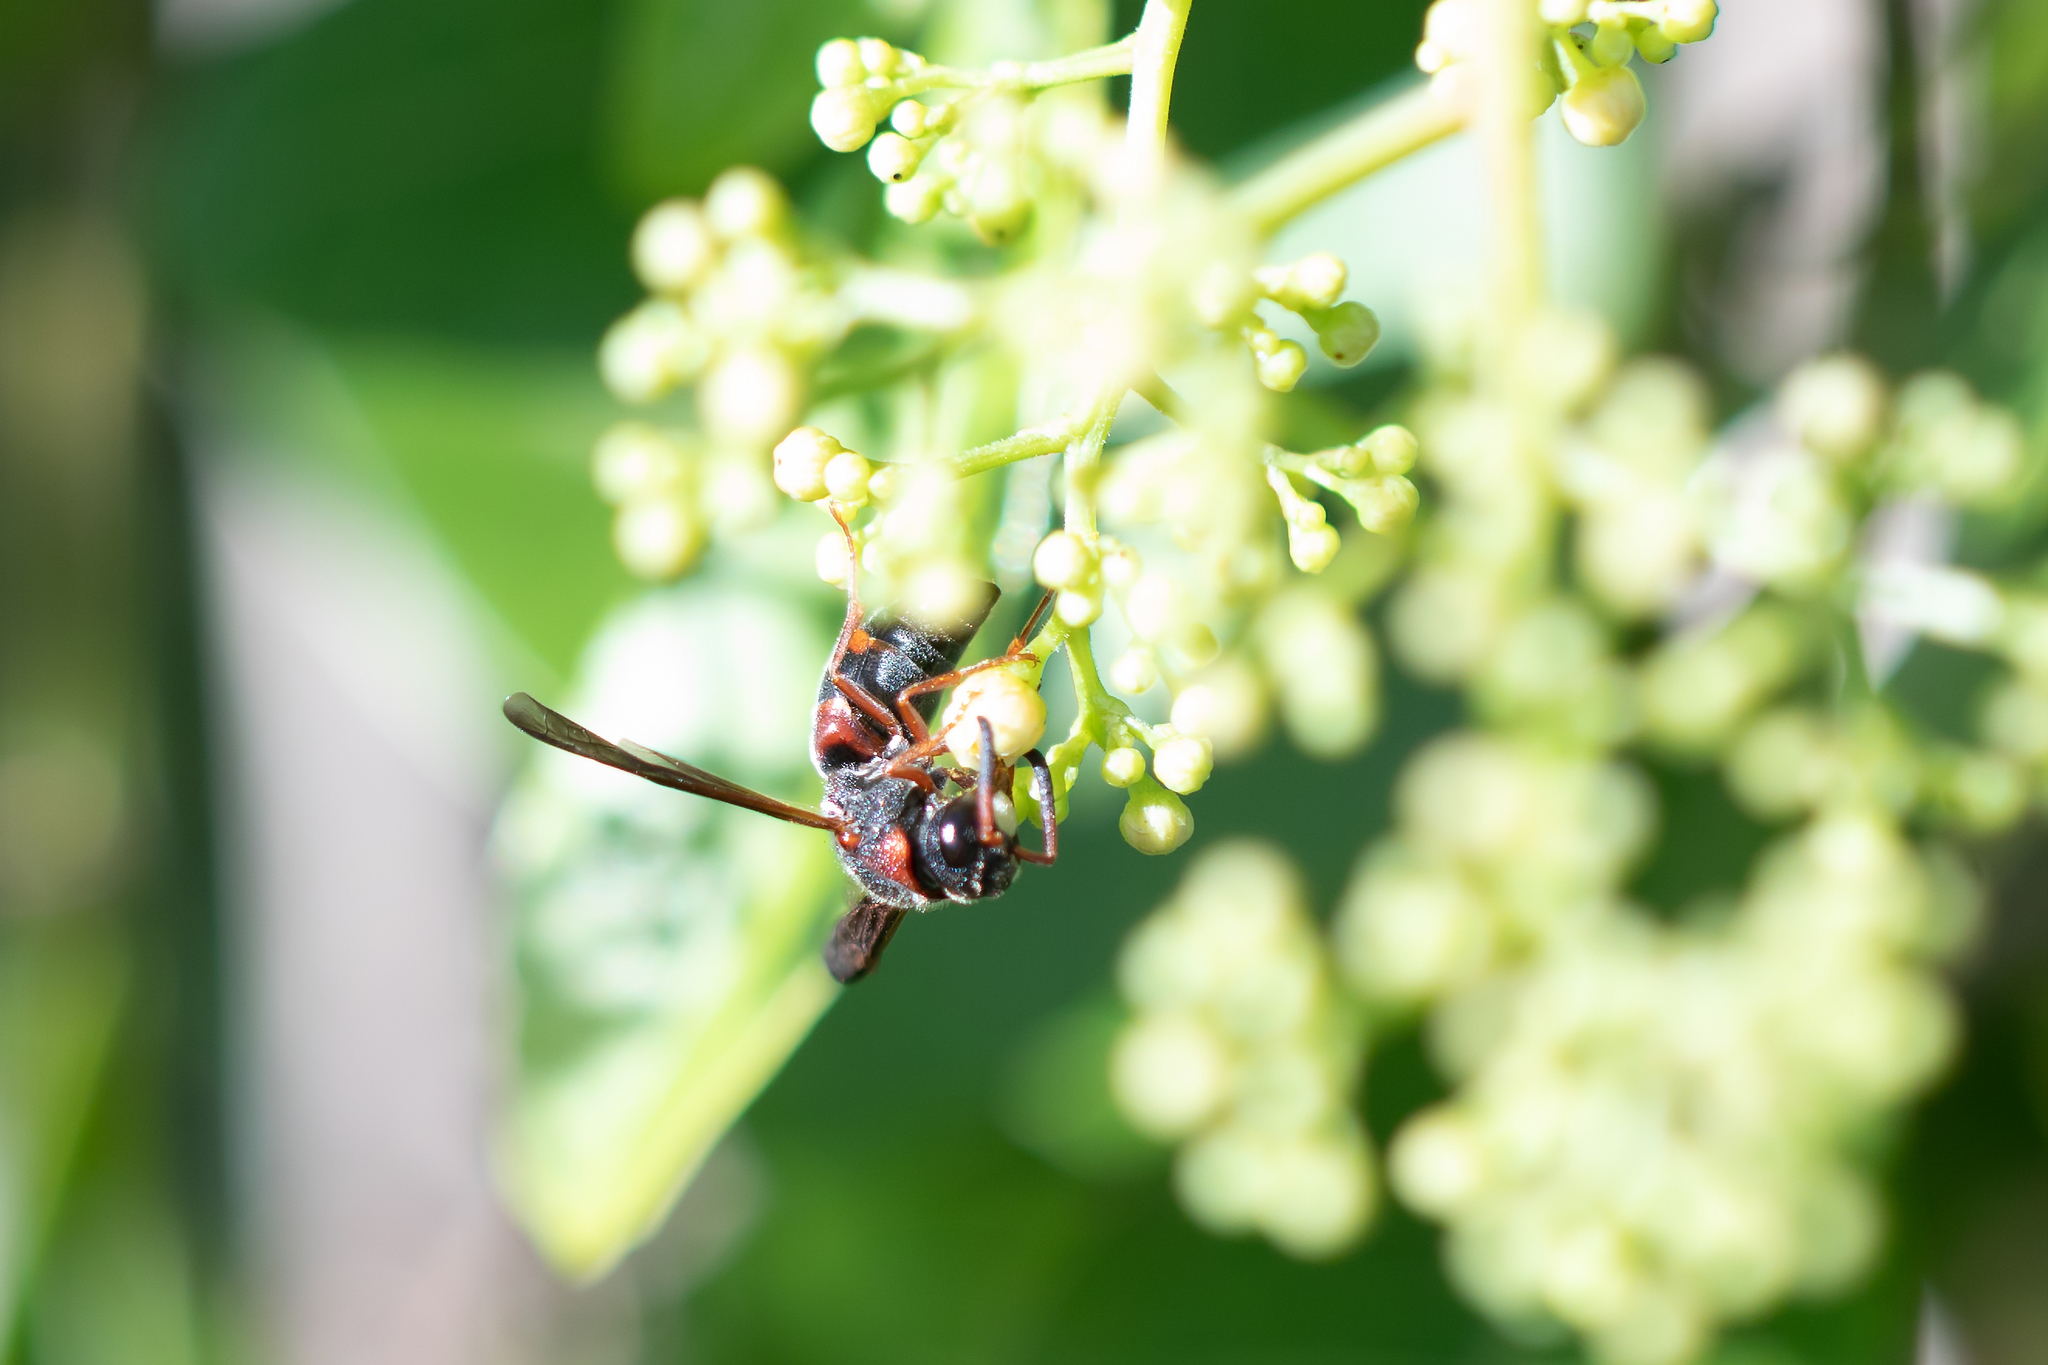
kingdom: Animalia
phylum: Arthropoda
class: Insecta
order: Hymenoptera
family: Eumenidae
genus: Pachodynerus
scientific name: Pachodynerus erynnis
